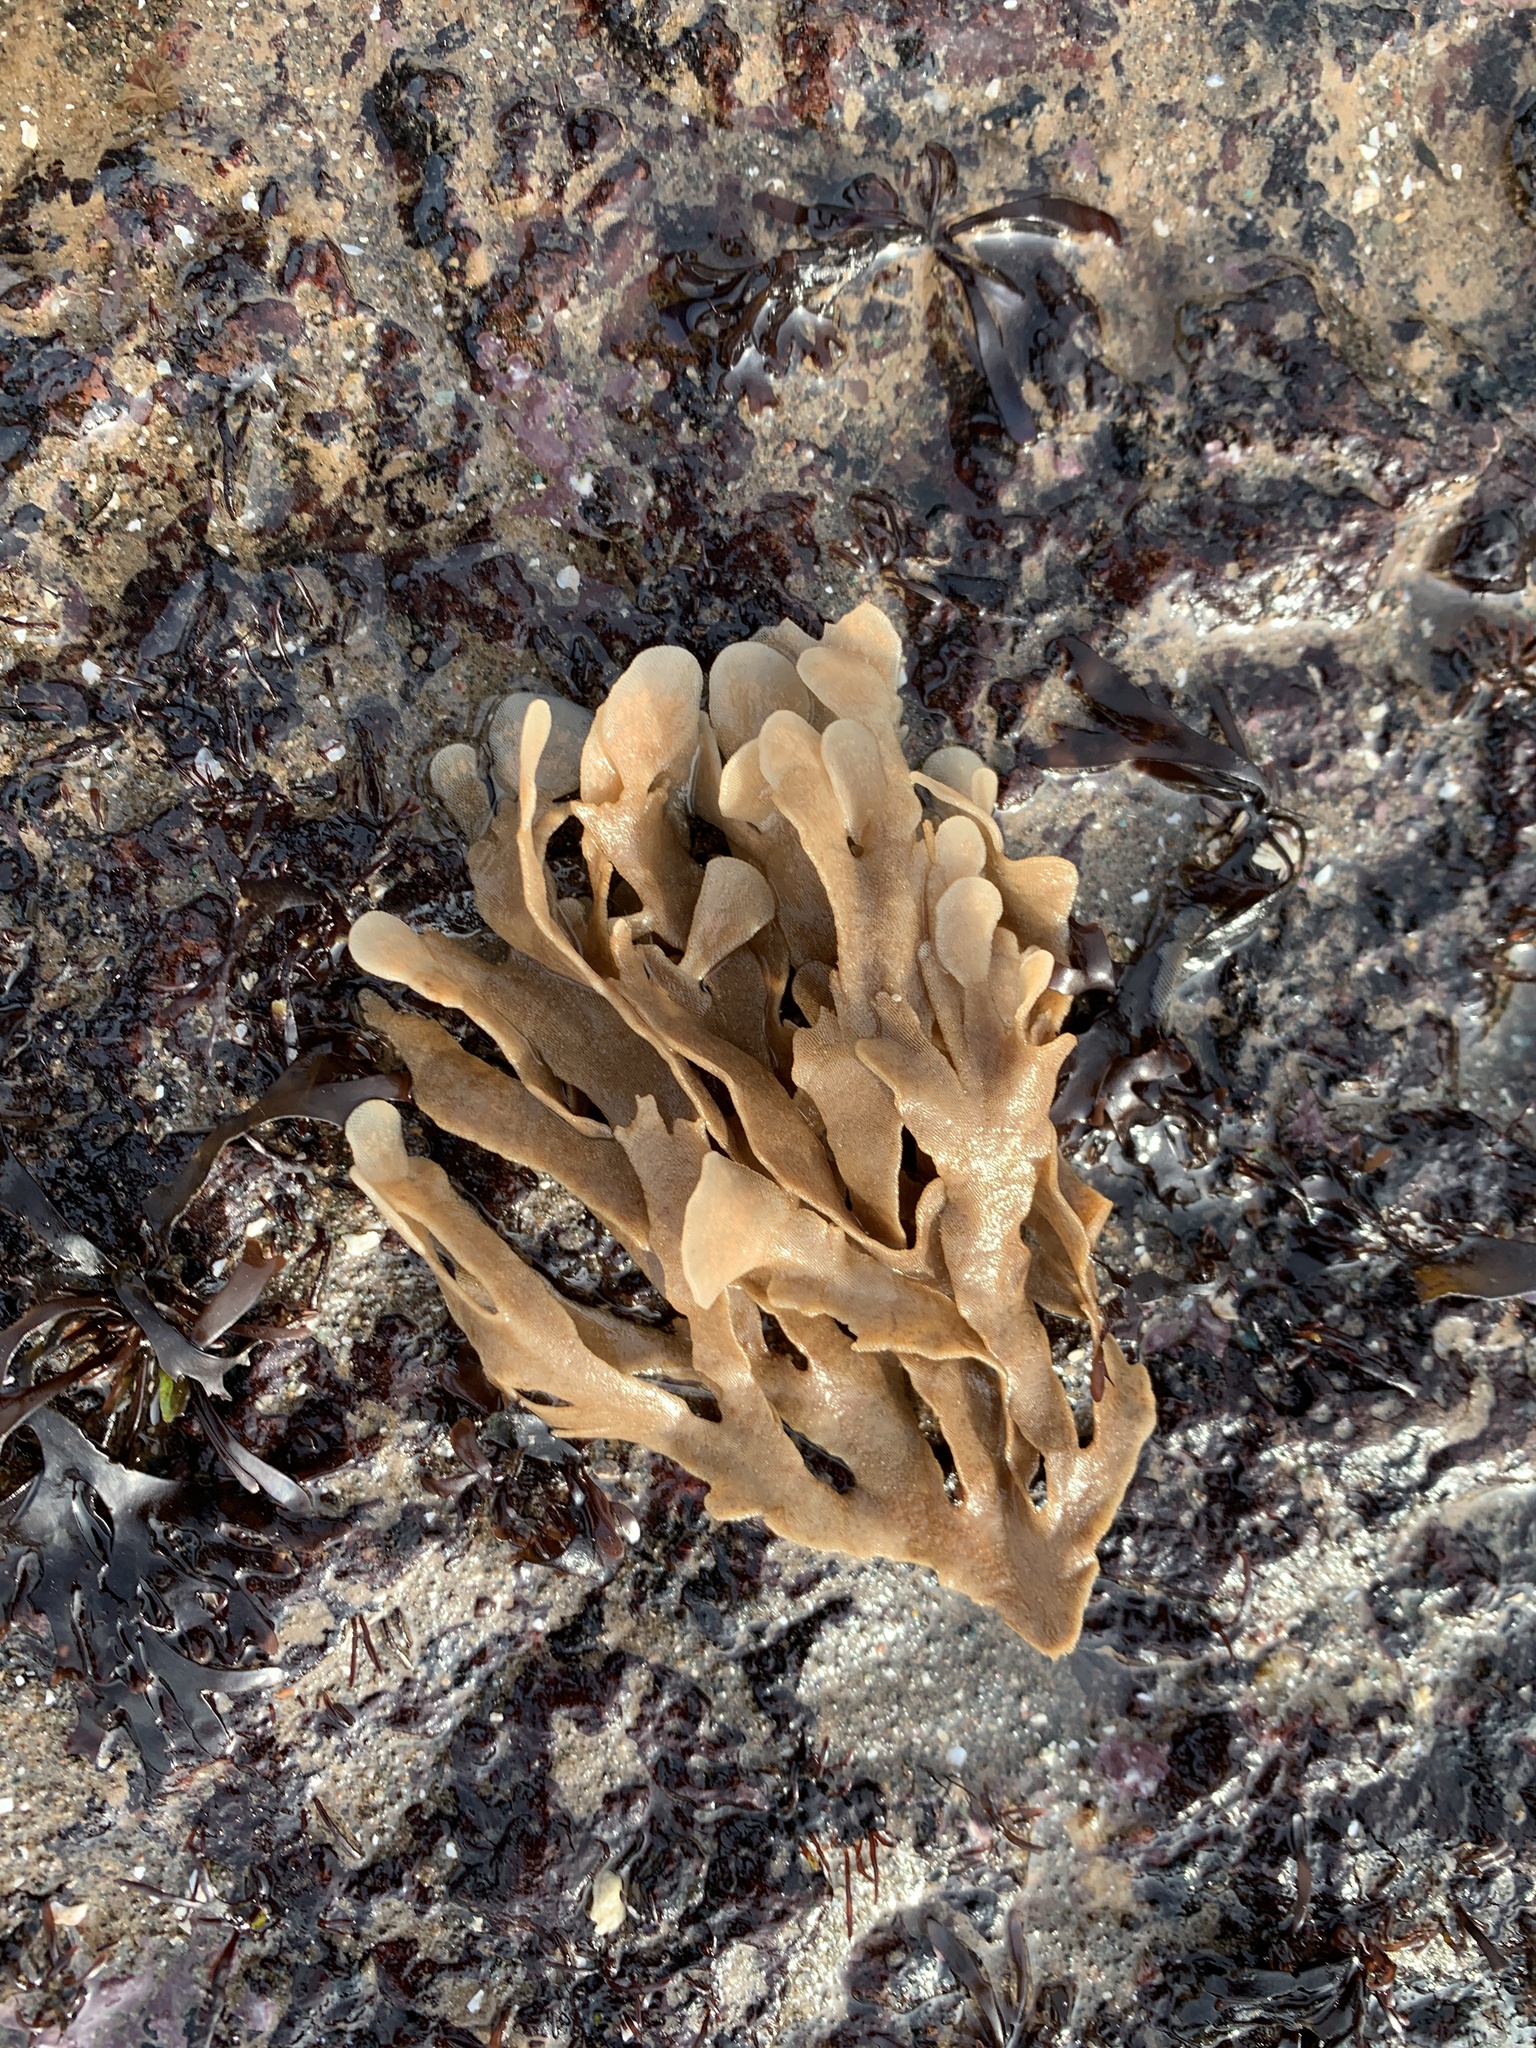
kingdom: Animalia
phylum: Bryozoa
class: Gymnolaemata
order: Cheilostomatida
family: Flustridae
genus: Flustra
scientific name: Flustra foliacea
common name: Hornwrack
